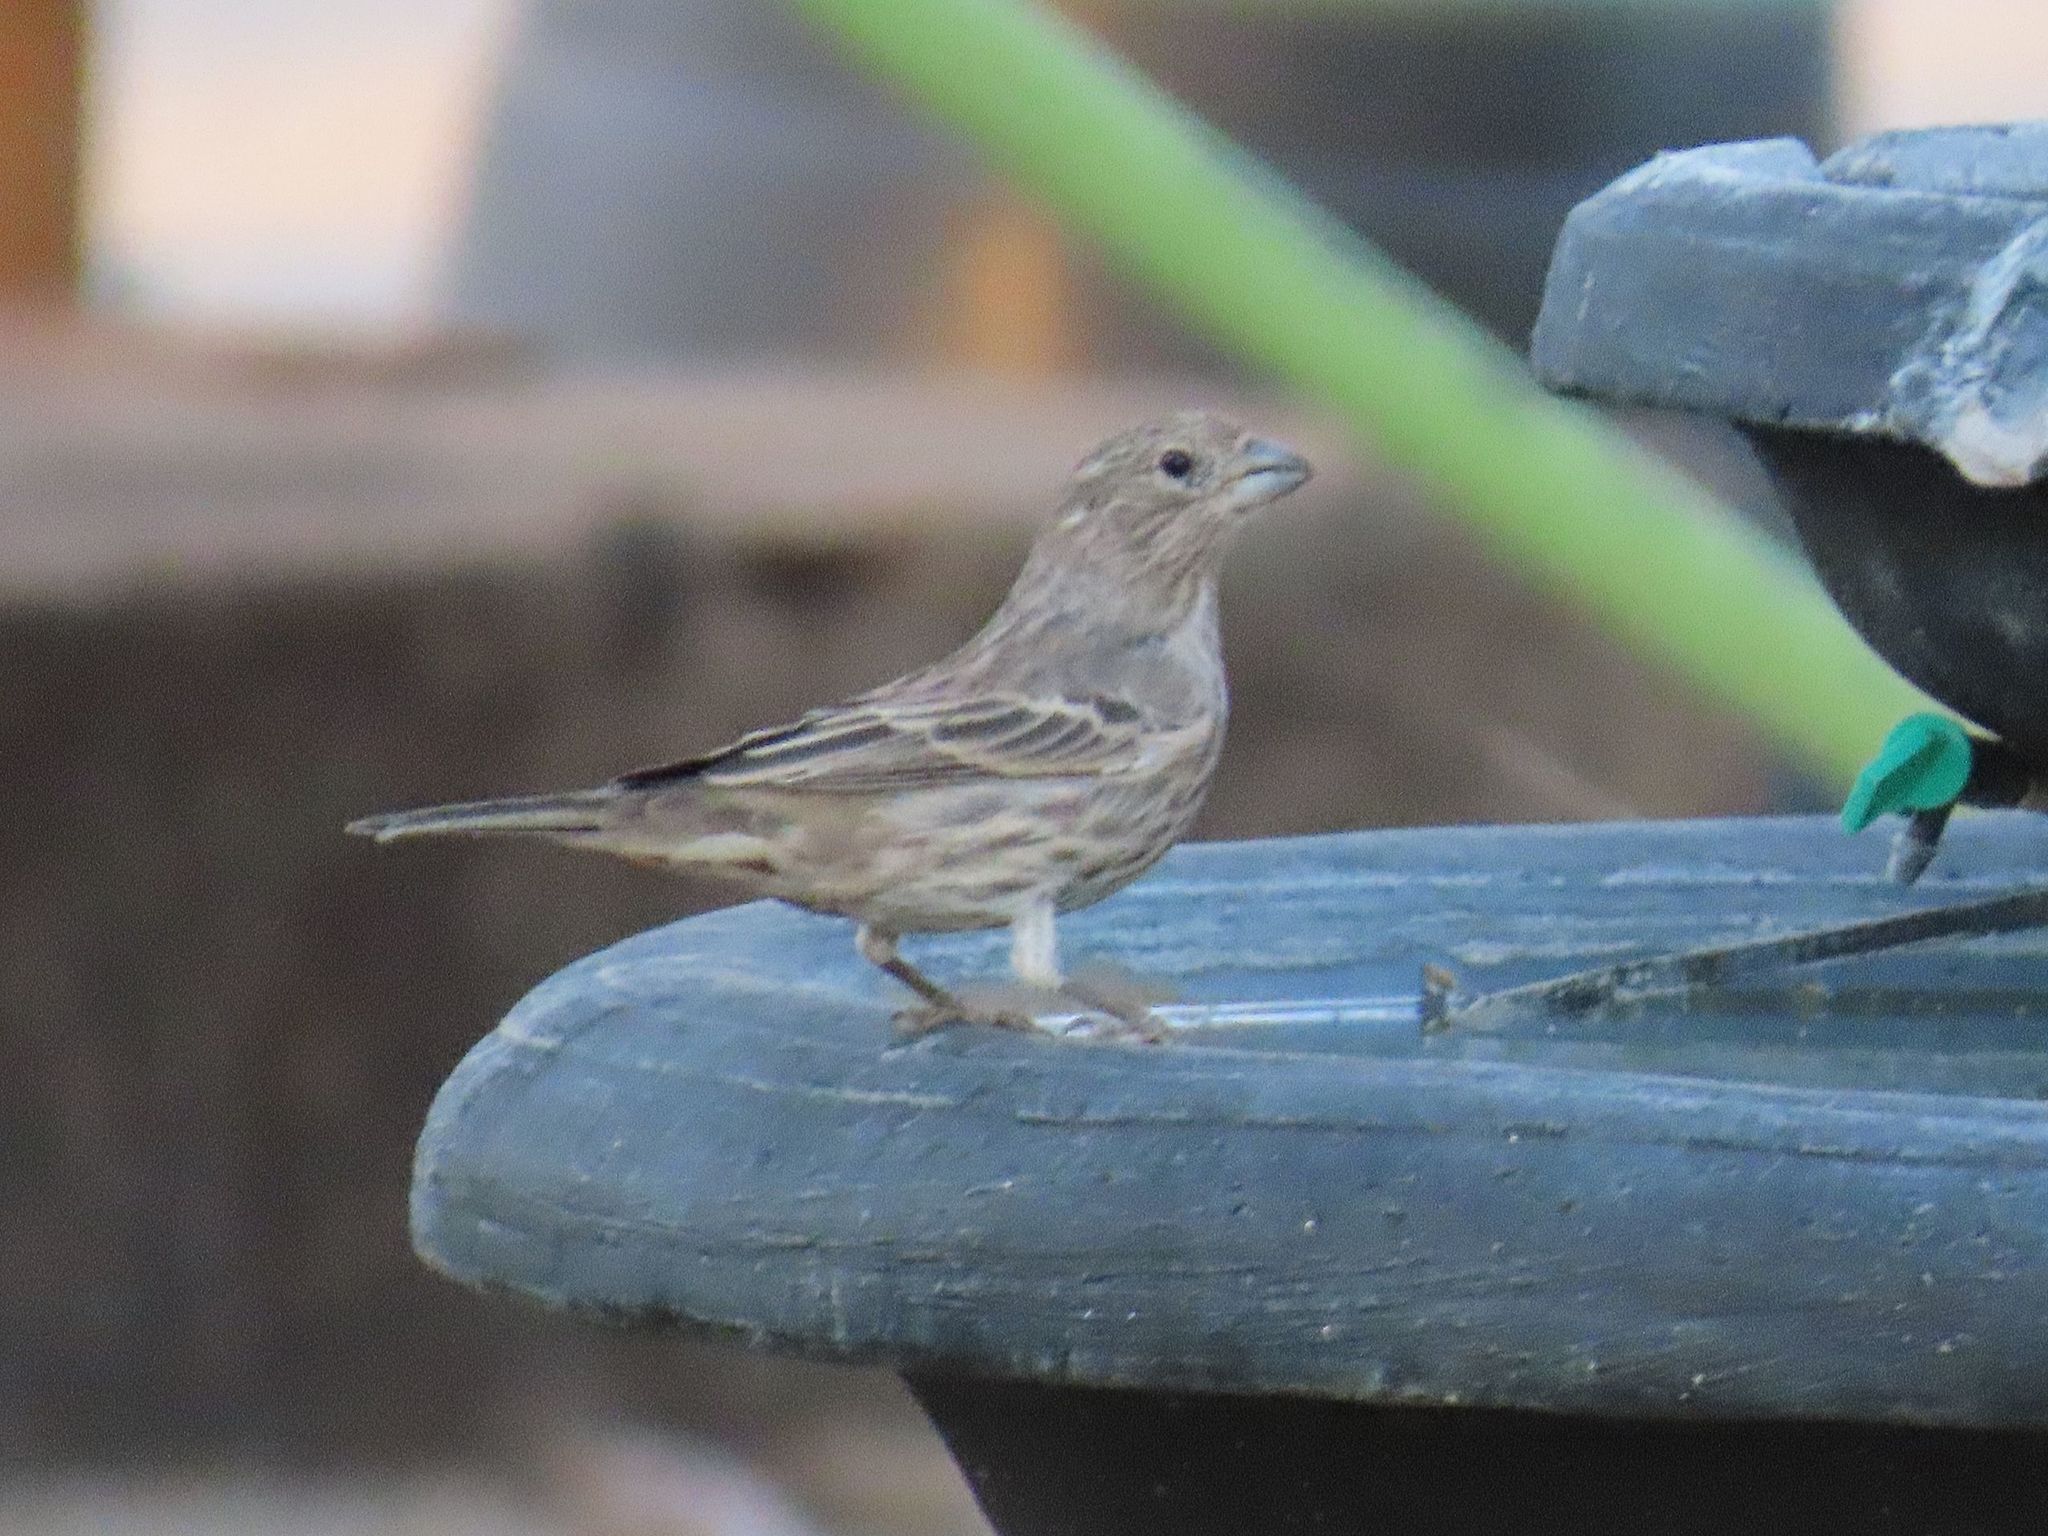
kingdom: Animalia
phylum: Chordata
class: Aves
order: Passeriformes
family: Fringillidae
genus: Haemorhous
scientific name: Haemorhous mexicanus
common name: House finch
